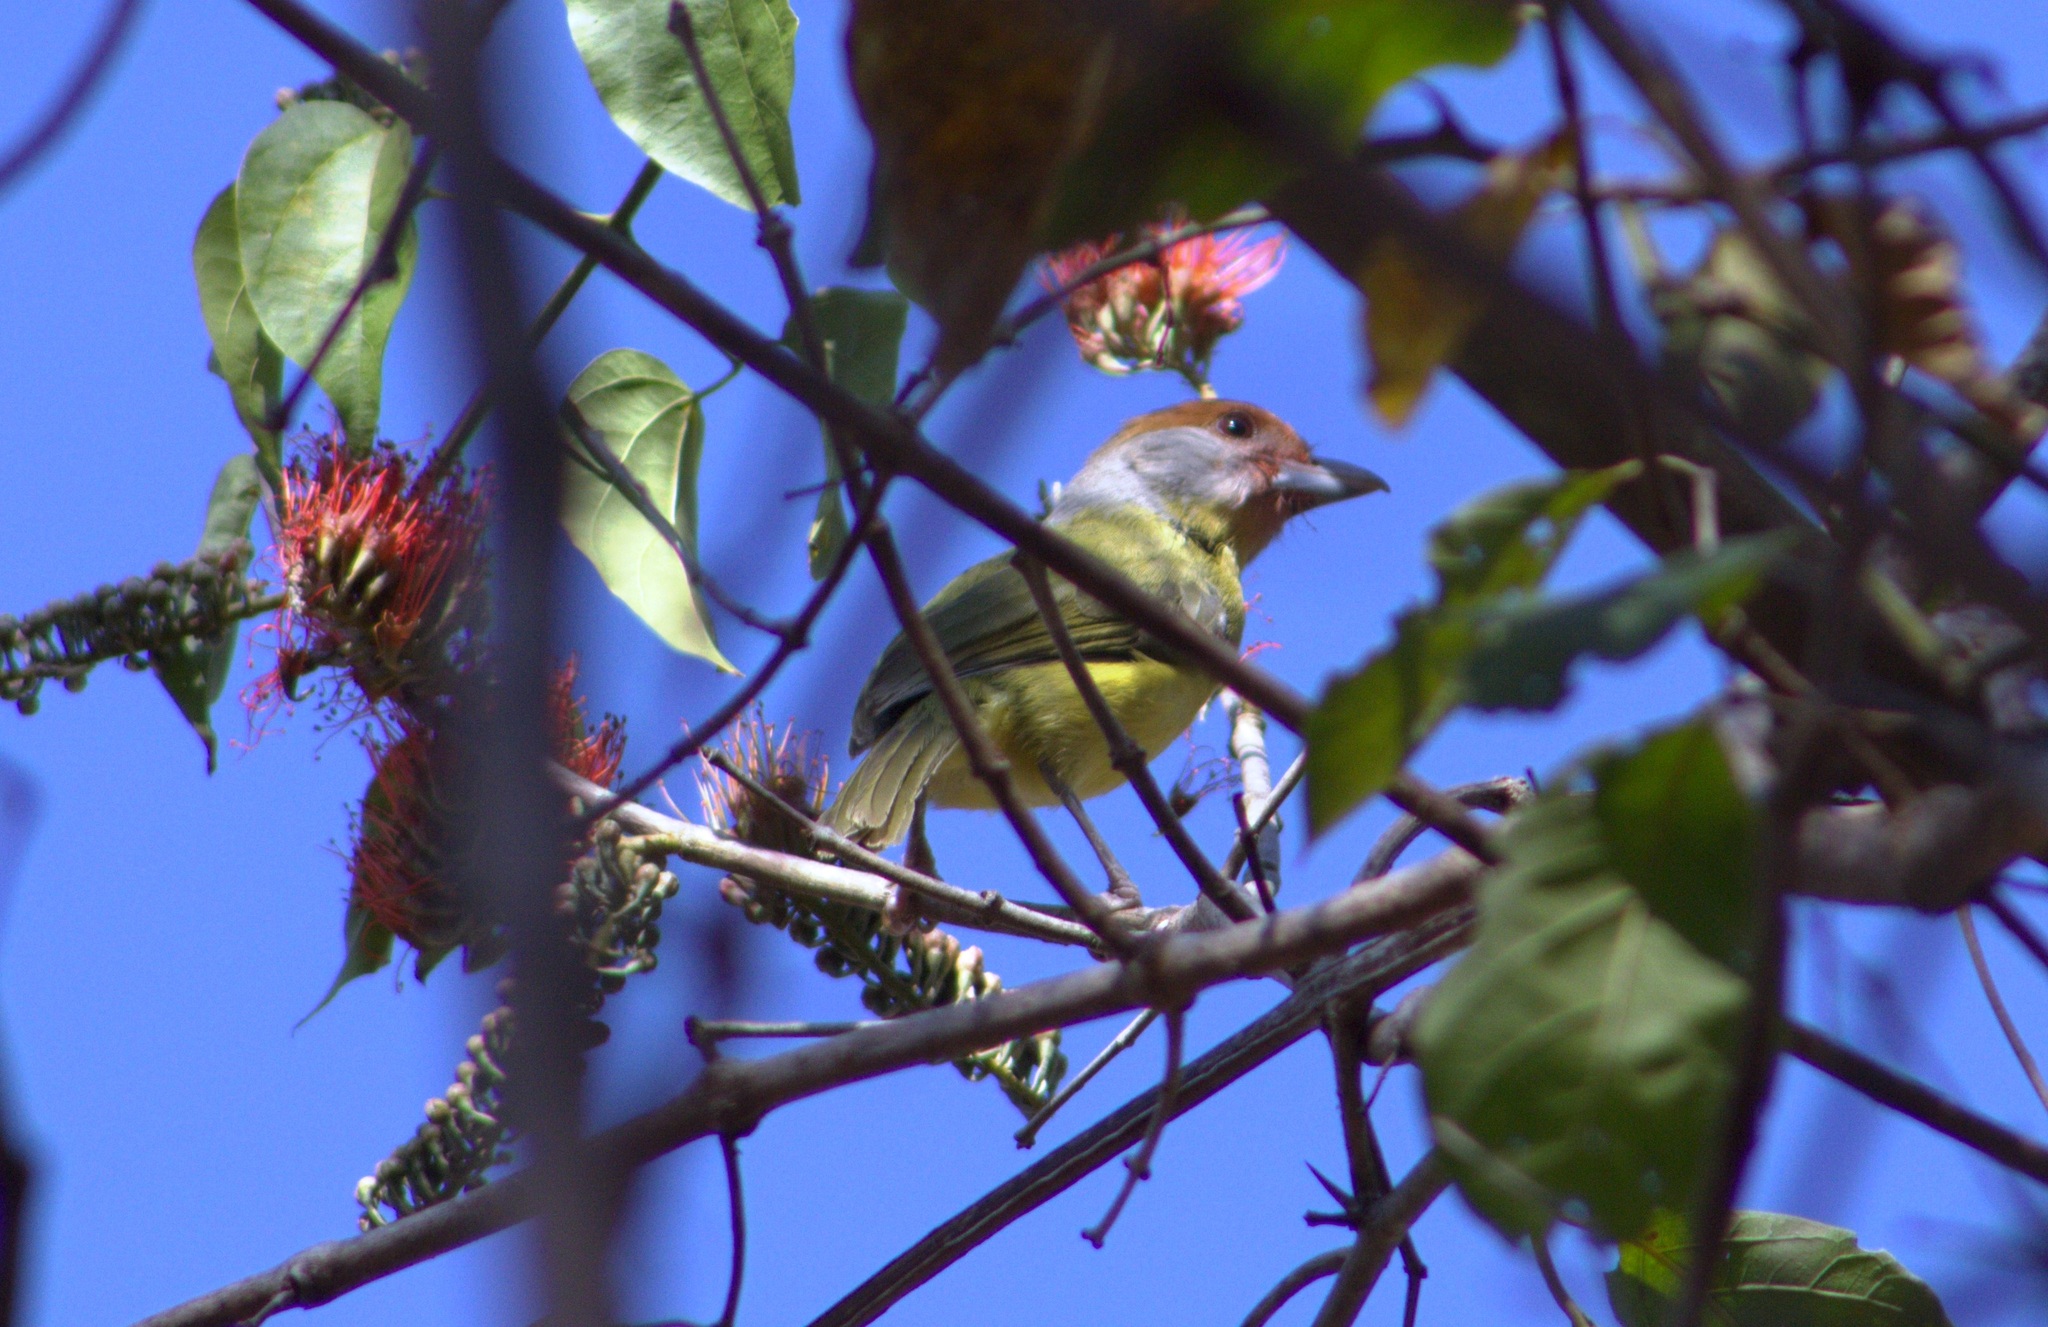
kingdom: Animalia
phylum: Chordata
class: Aves
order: Passeriformes
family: Vireonidae
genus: Cyclarhis
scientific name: Cyclarhis gujanensis
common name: Rufous-browed peppershrike
